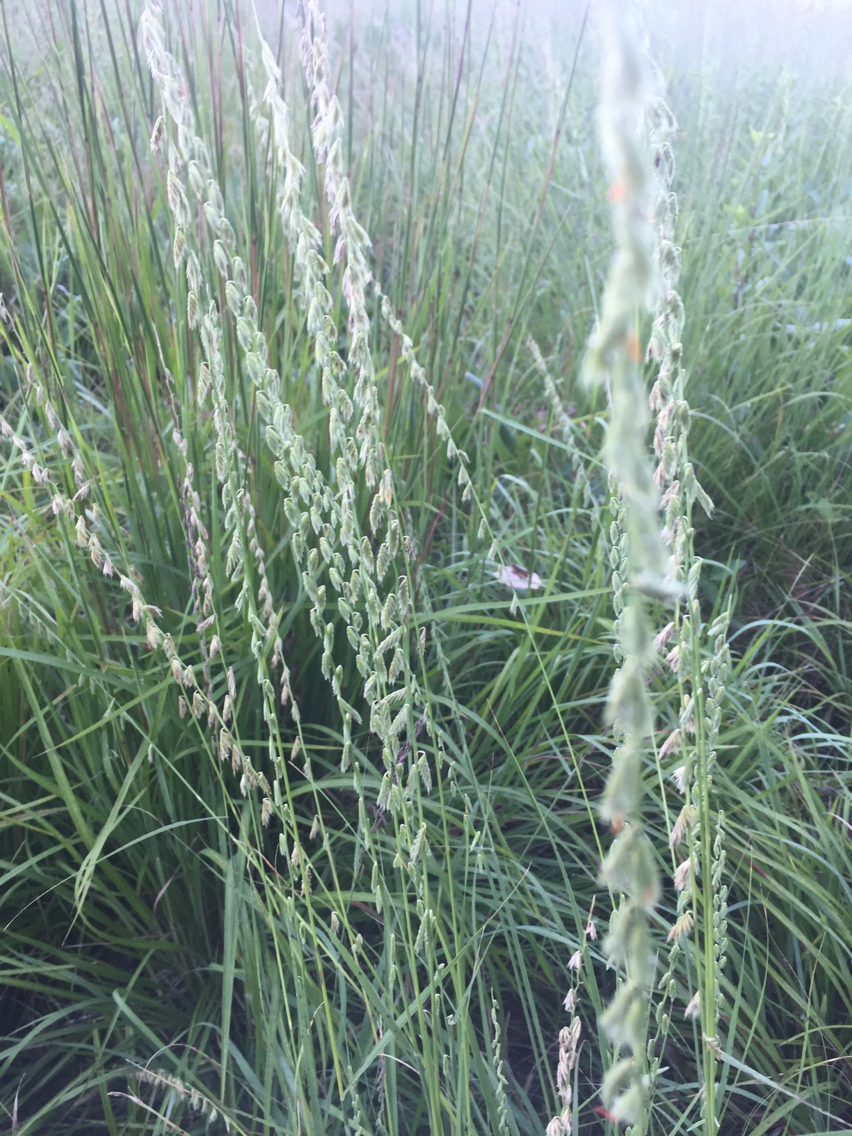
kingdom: Plantae
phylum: Tracheophyta
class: Liliopsida
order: Poales
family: Poaceae
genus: Bouteloua
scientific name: Bouteloua curtipendula
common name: Side-oats grama
